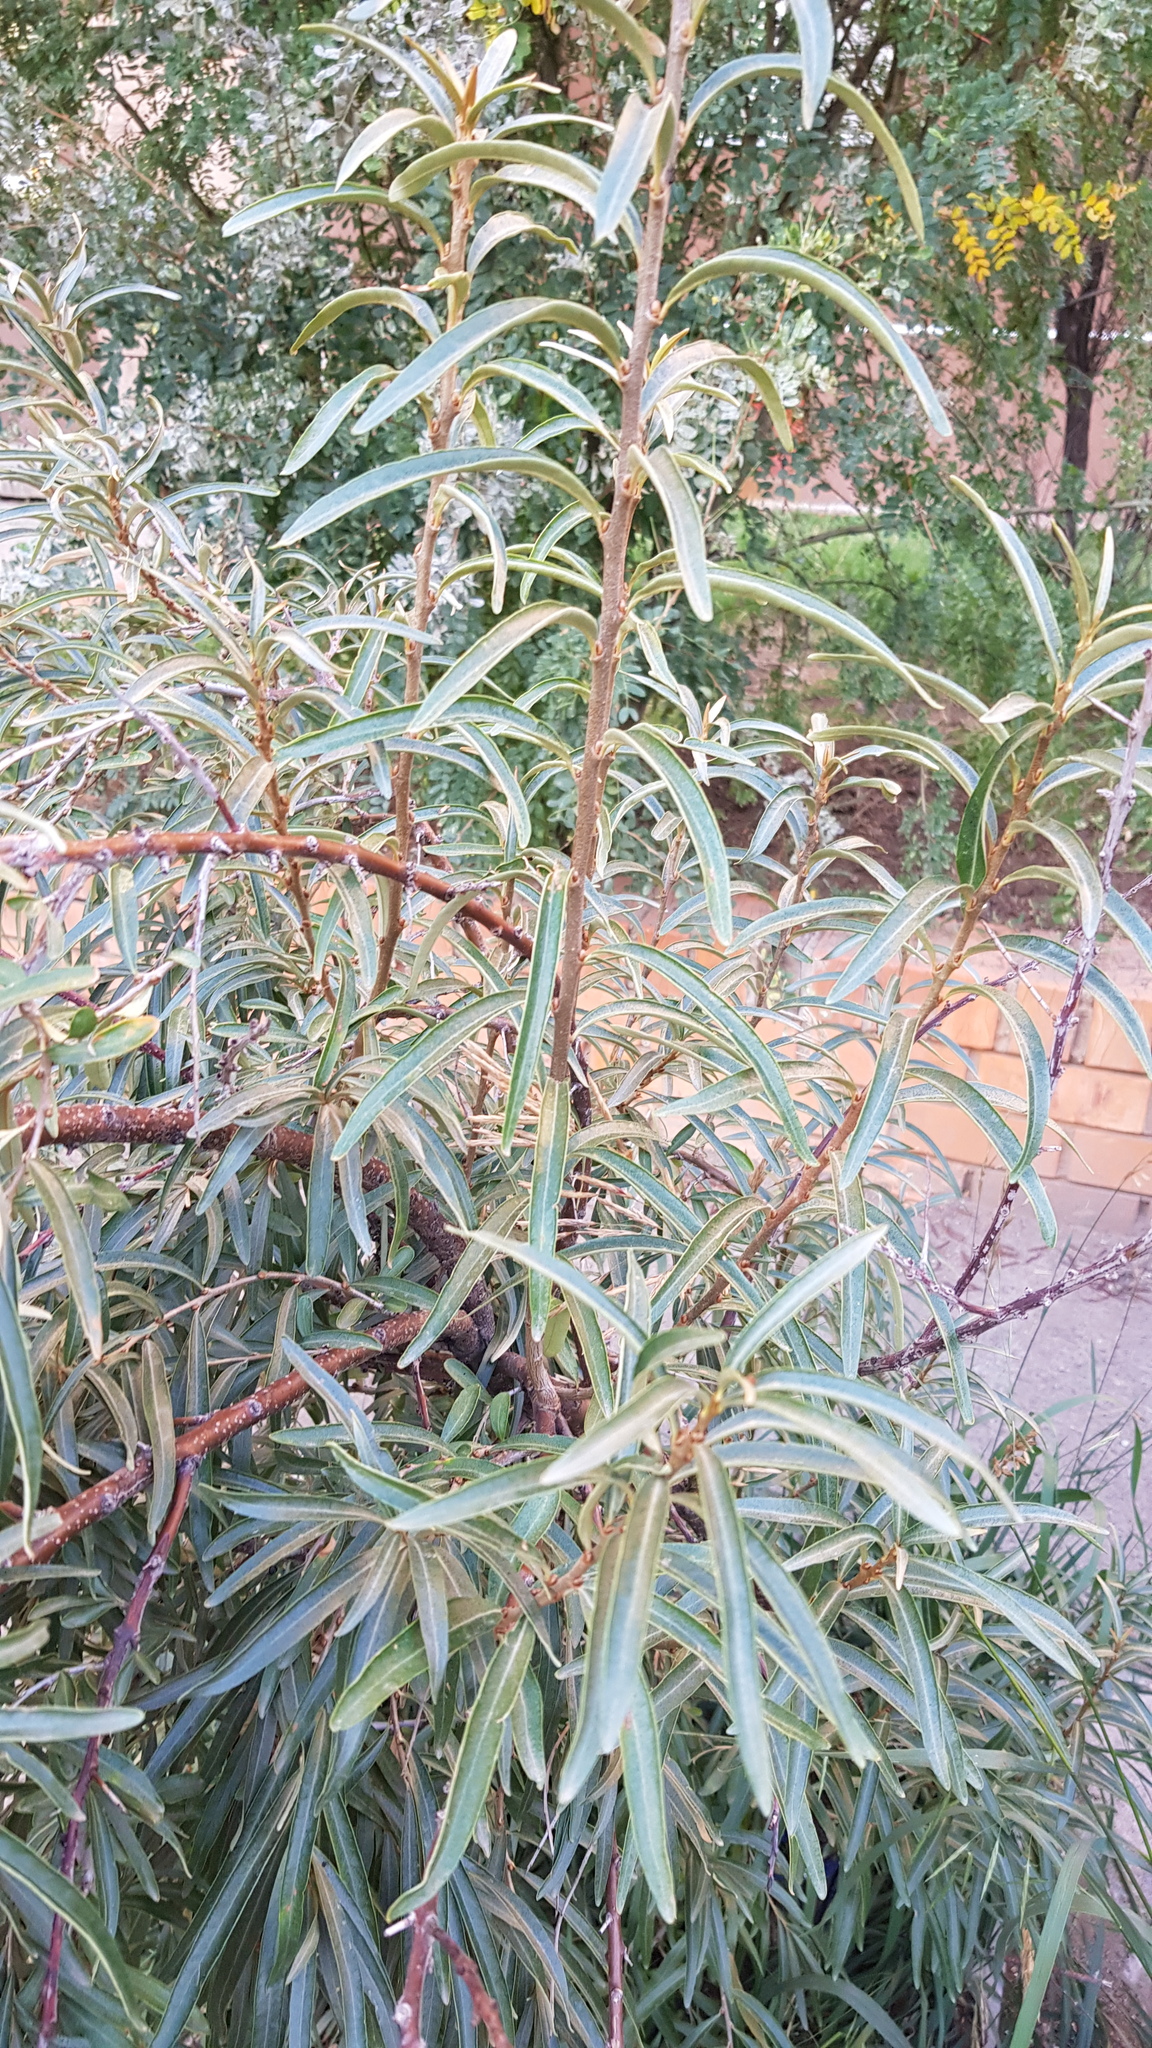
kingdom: Plantae
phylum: Tracheophyta
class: Magnoliopsida
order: Rosales
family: Elaeagnaceae
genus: Hippophae
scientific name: Hippophae rhamnoides
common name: Sea-buckthorn
